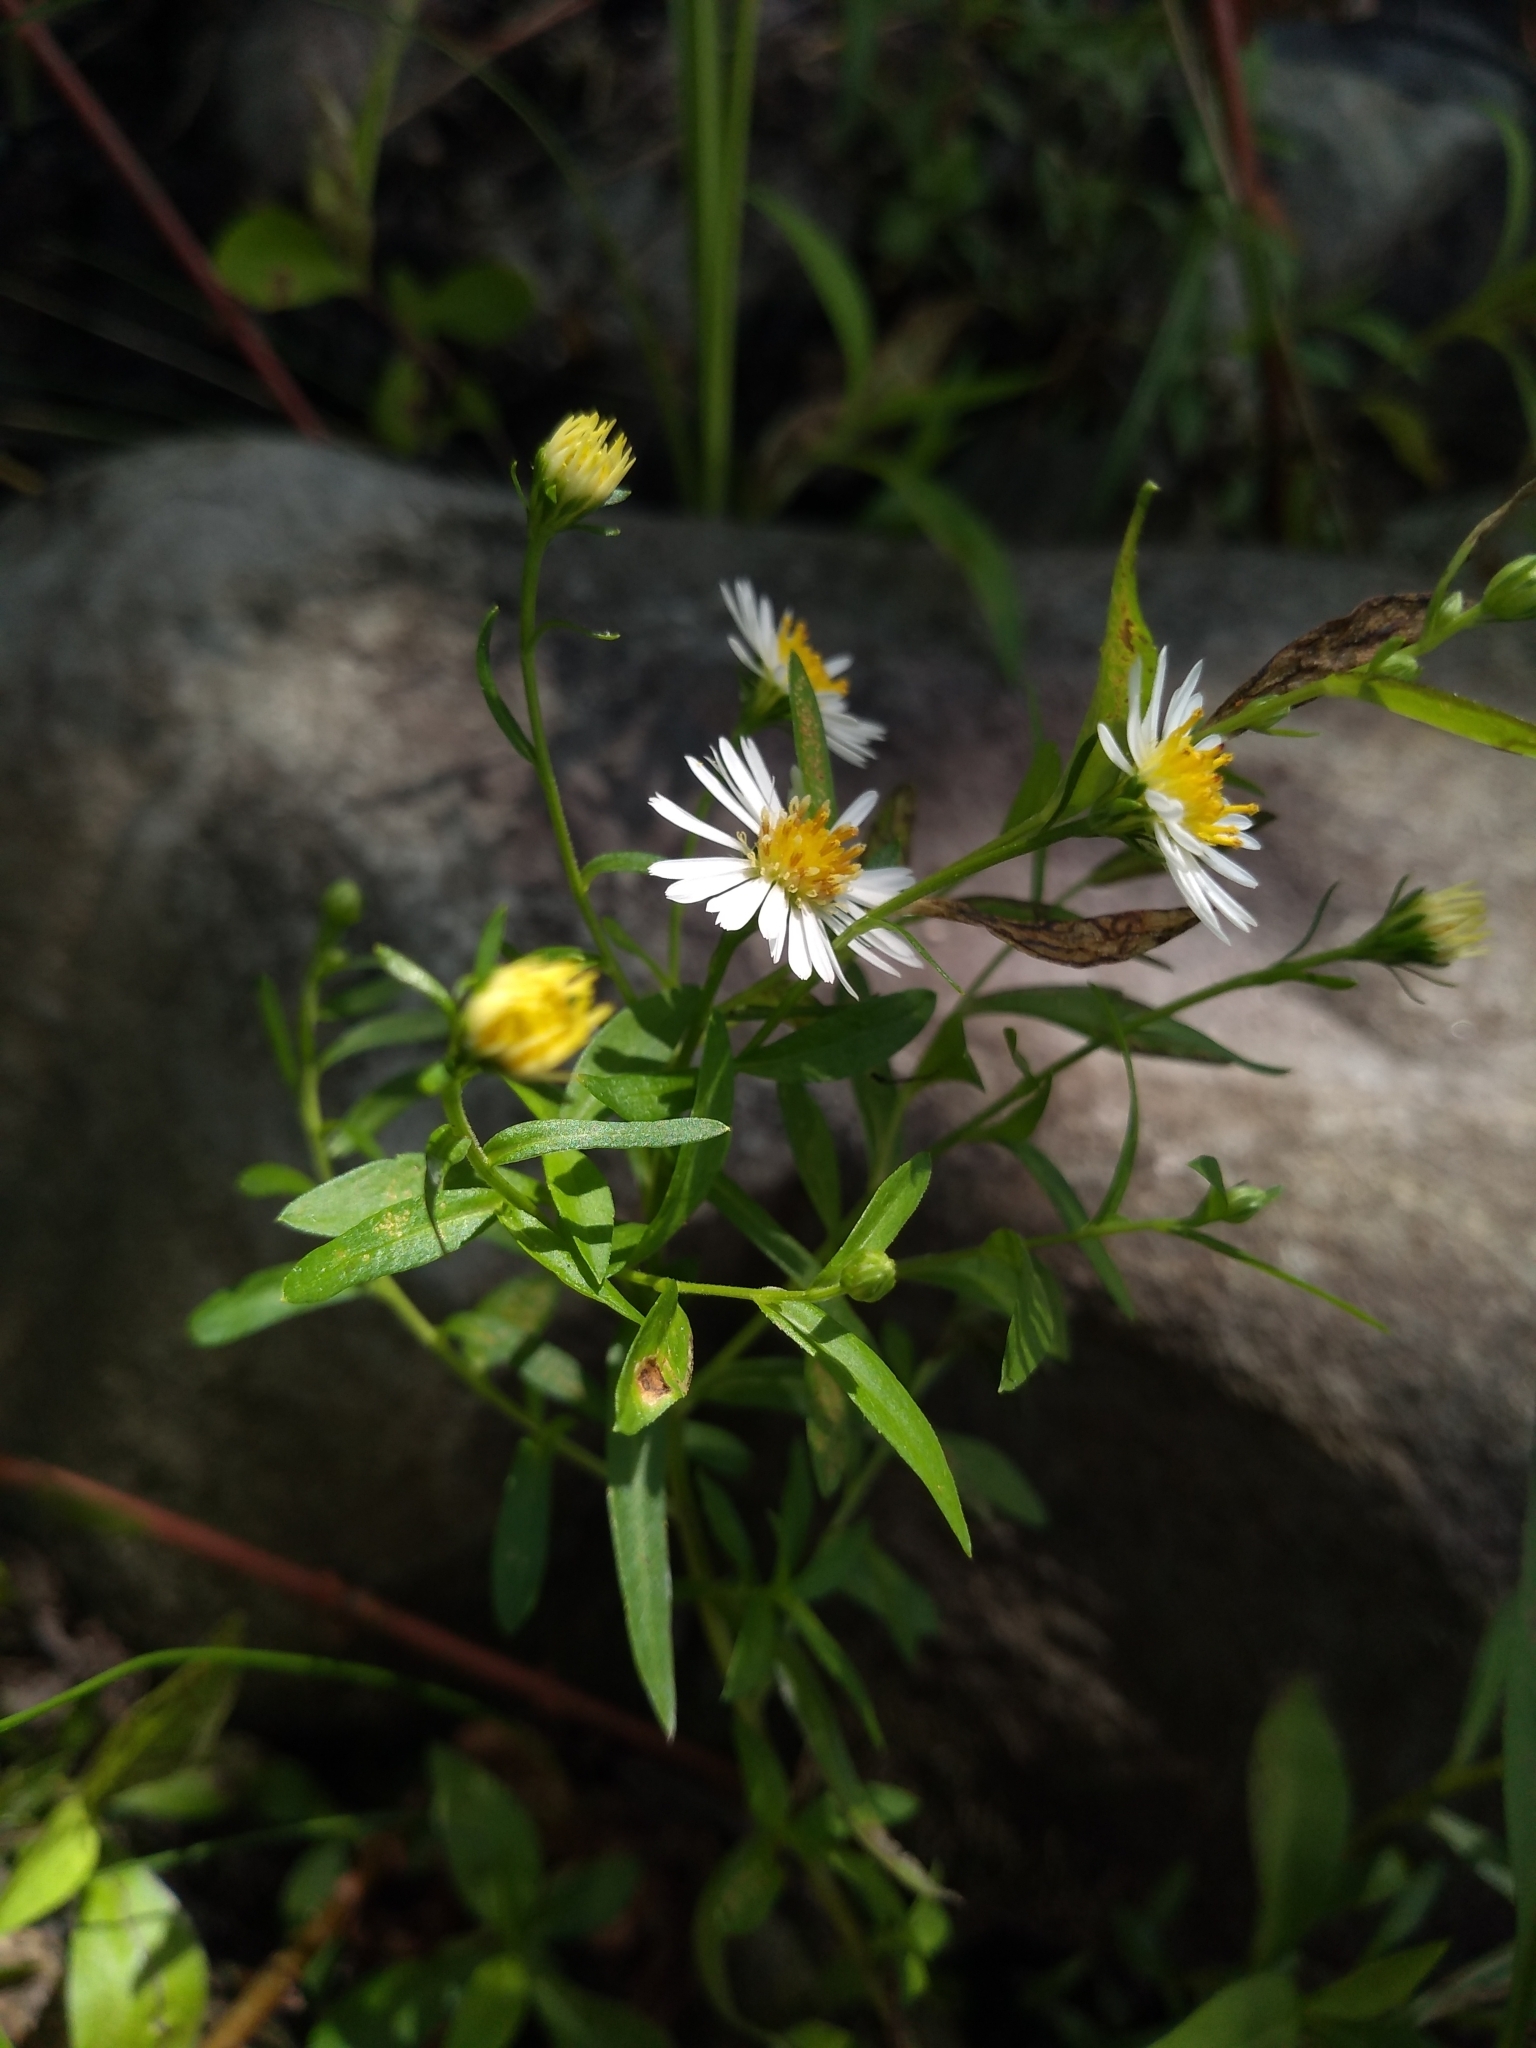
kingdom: Plantae
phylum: Tracheophyta
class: Magnoliopsida
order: Asterales
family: Asteraceae
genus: Symphyotrichum
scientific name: Symphyotrichum tradescantii
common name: Shore aster
